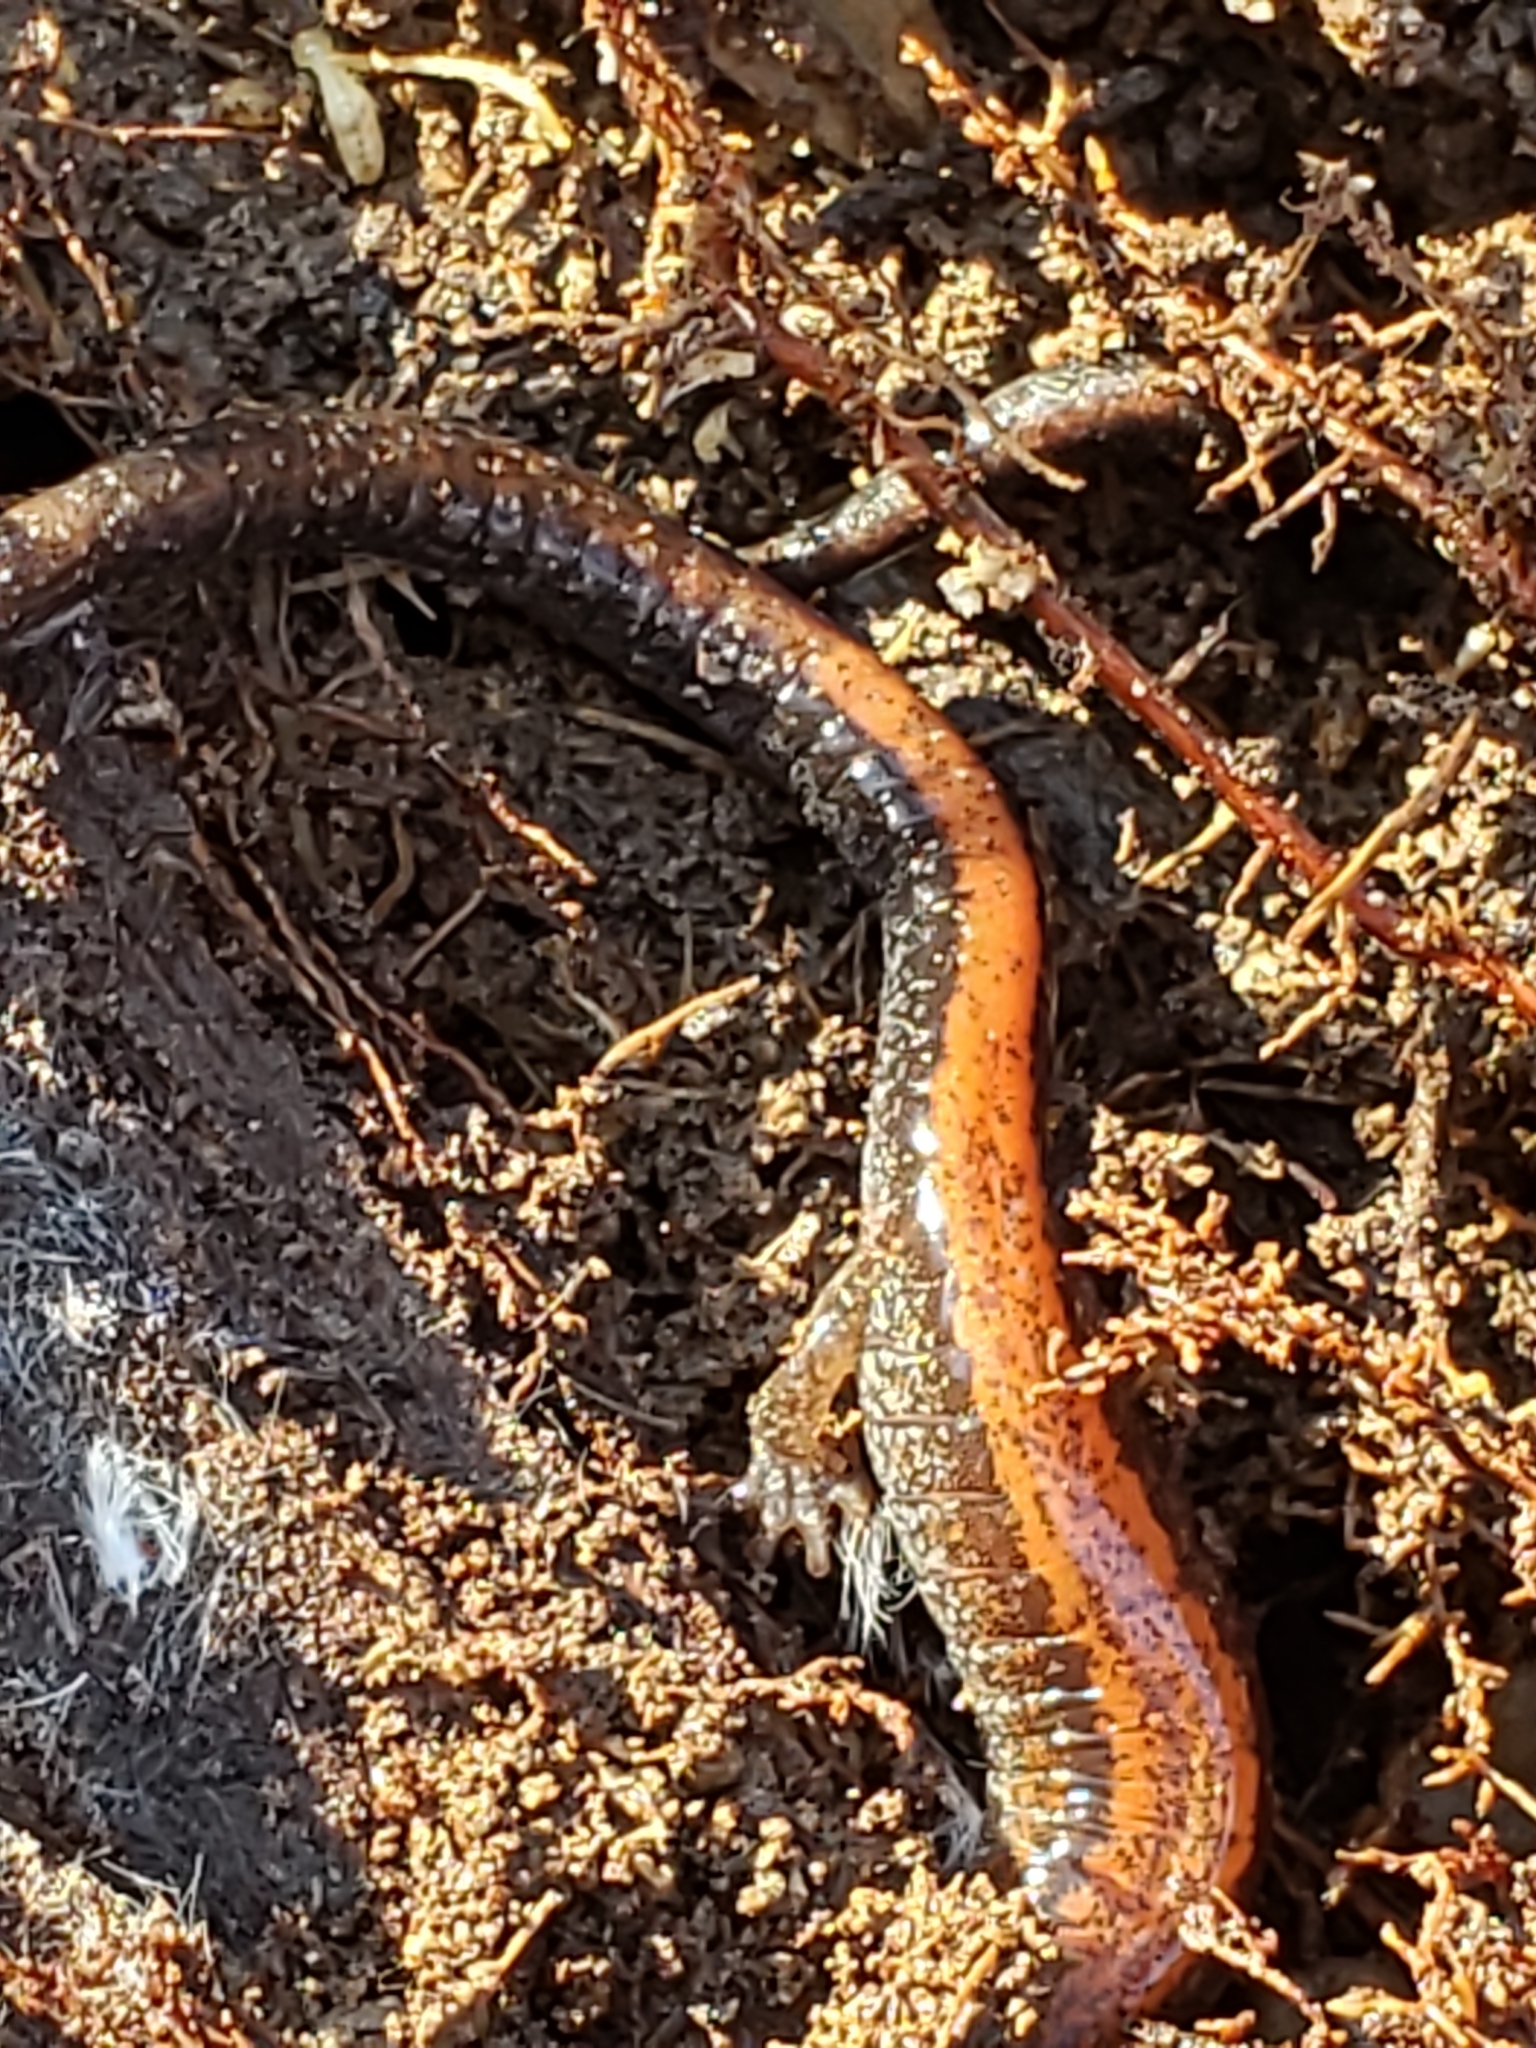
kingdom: Animalia
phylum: Chordata
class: Amphibia
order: Caudata
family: Plethodontidae
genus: Plethodon
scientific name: Plethodon cinereus
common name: Redback salamander
